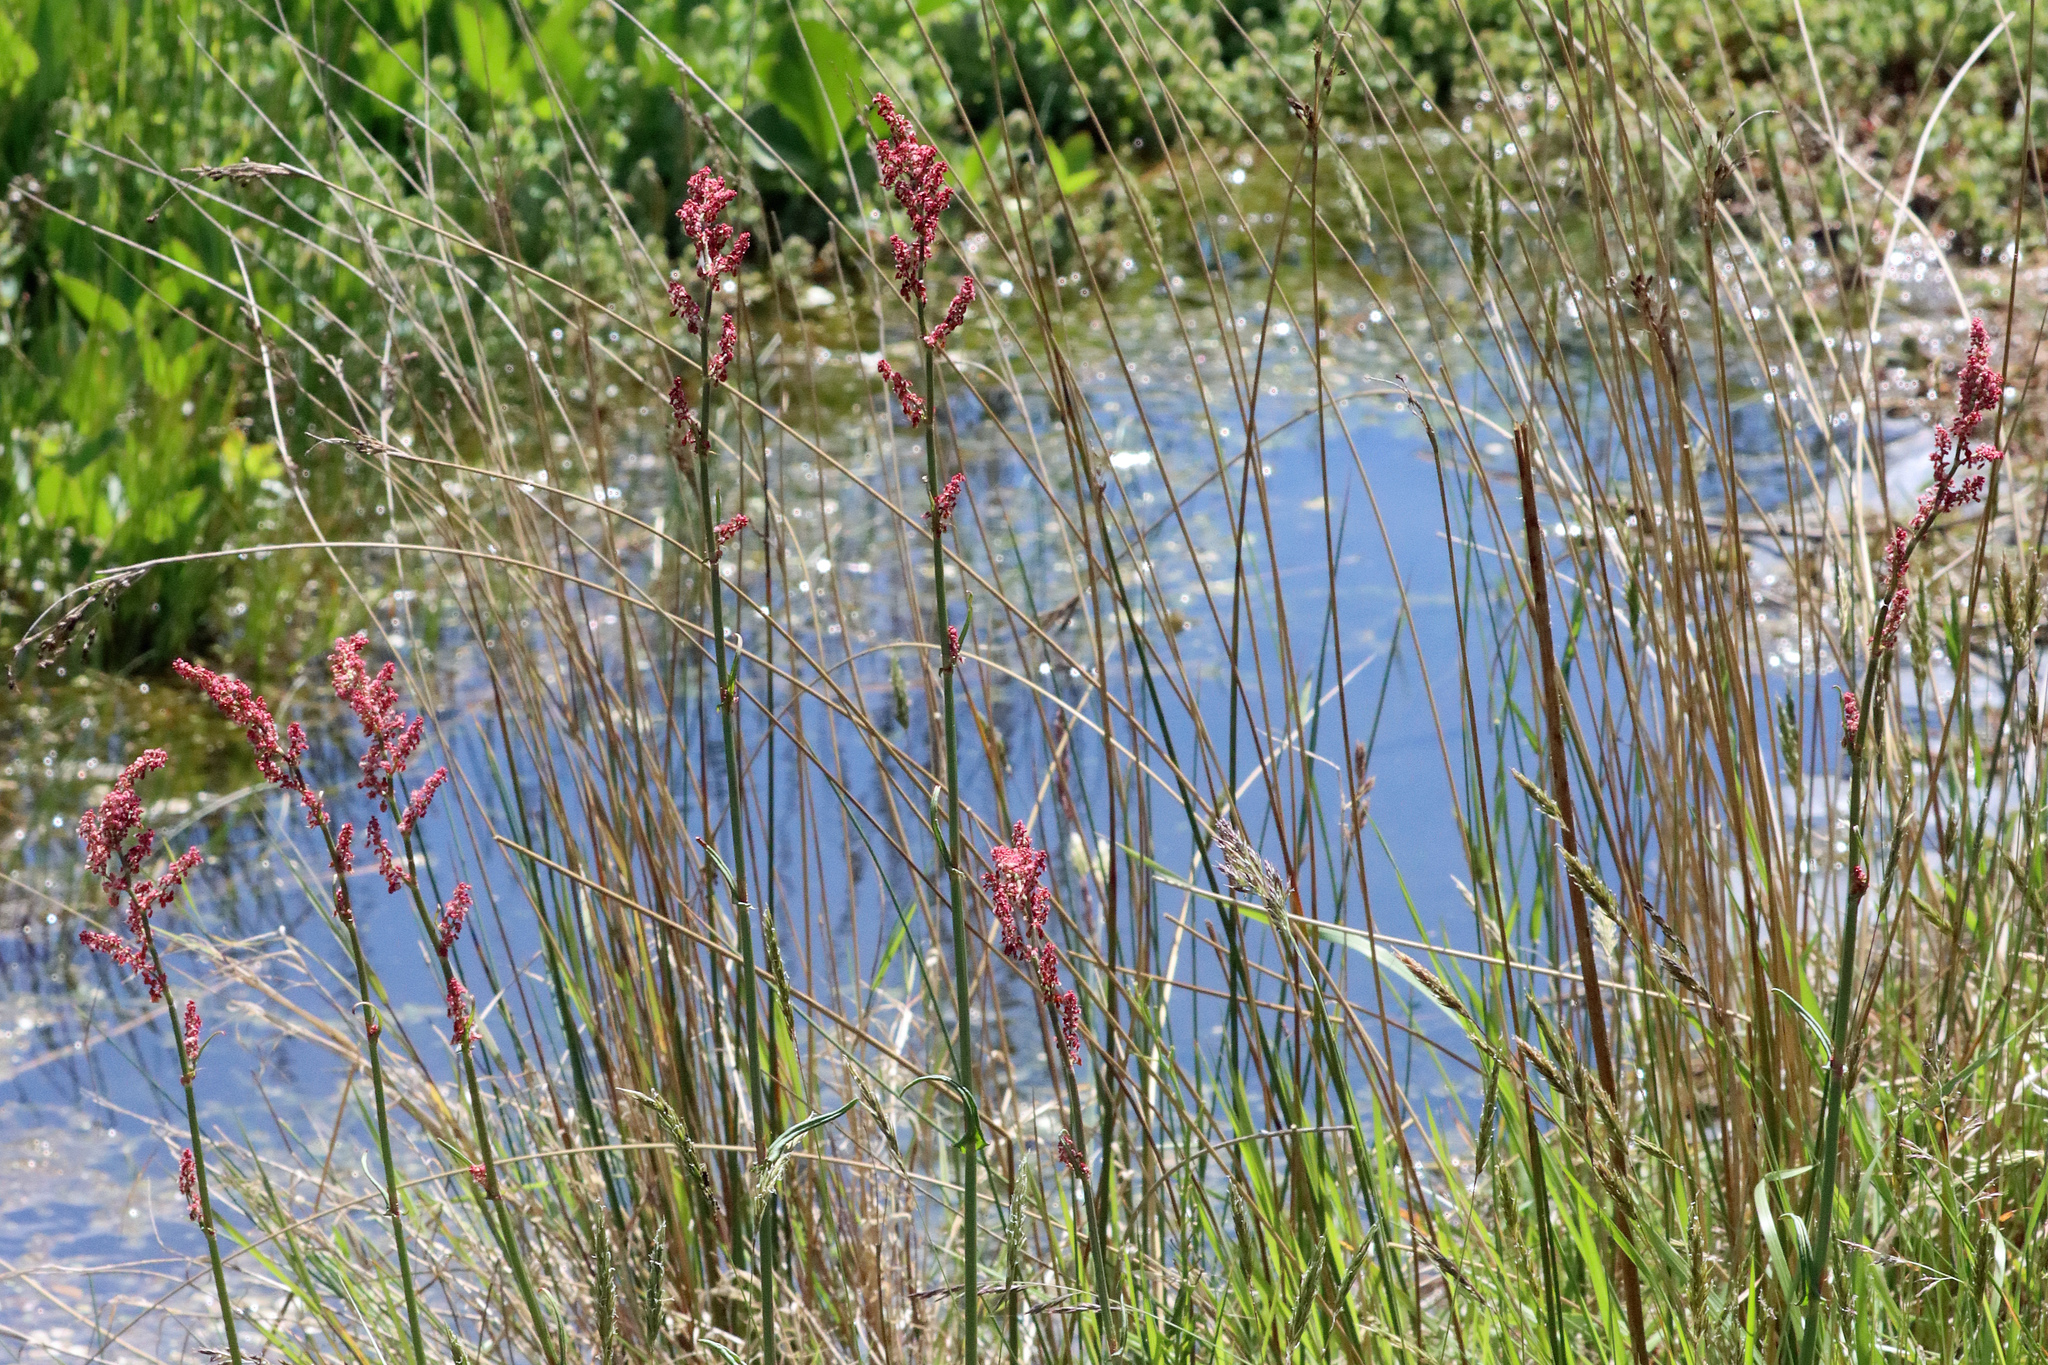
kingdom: Plantae
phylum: Tracheophyta
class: Magnoliopsida
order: Caryophyllales
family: Polygonaceae
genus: Rumex
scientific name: Rumex acetosa
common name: Garden sorrel
